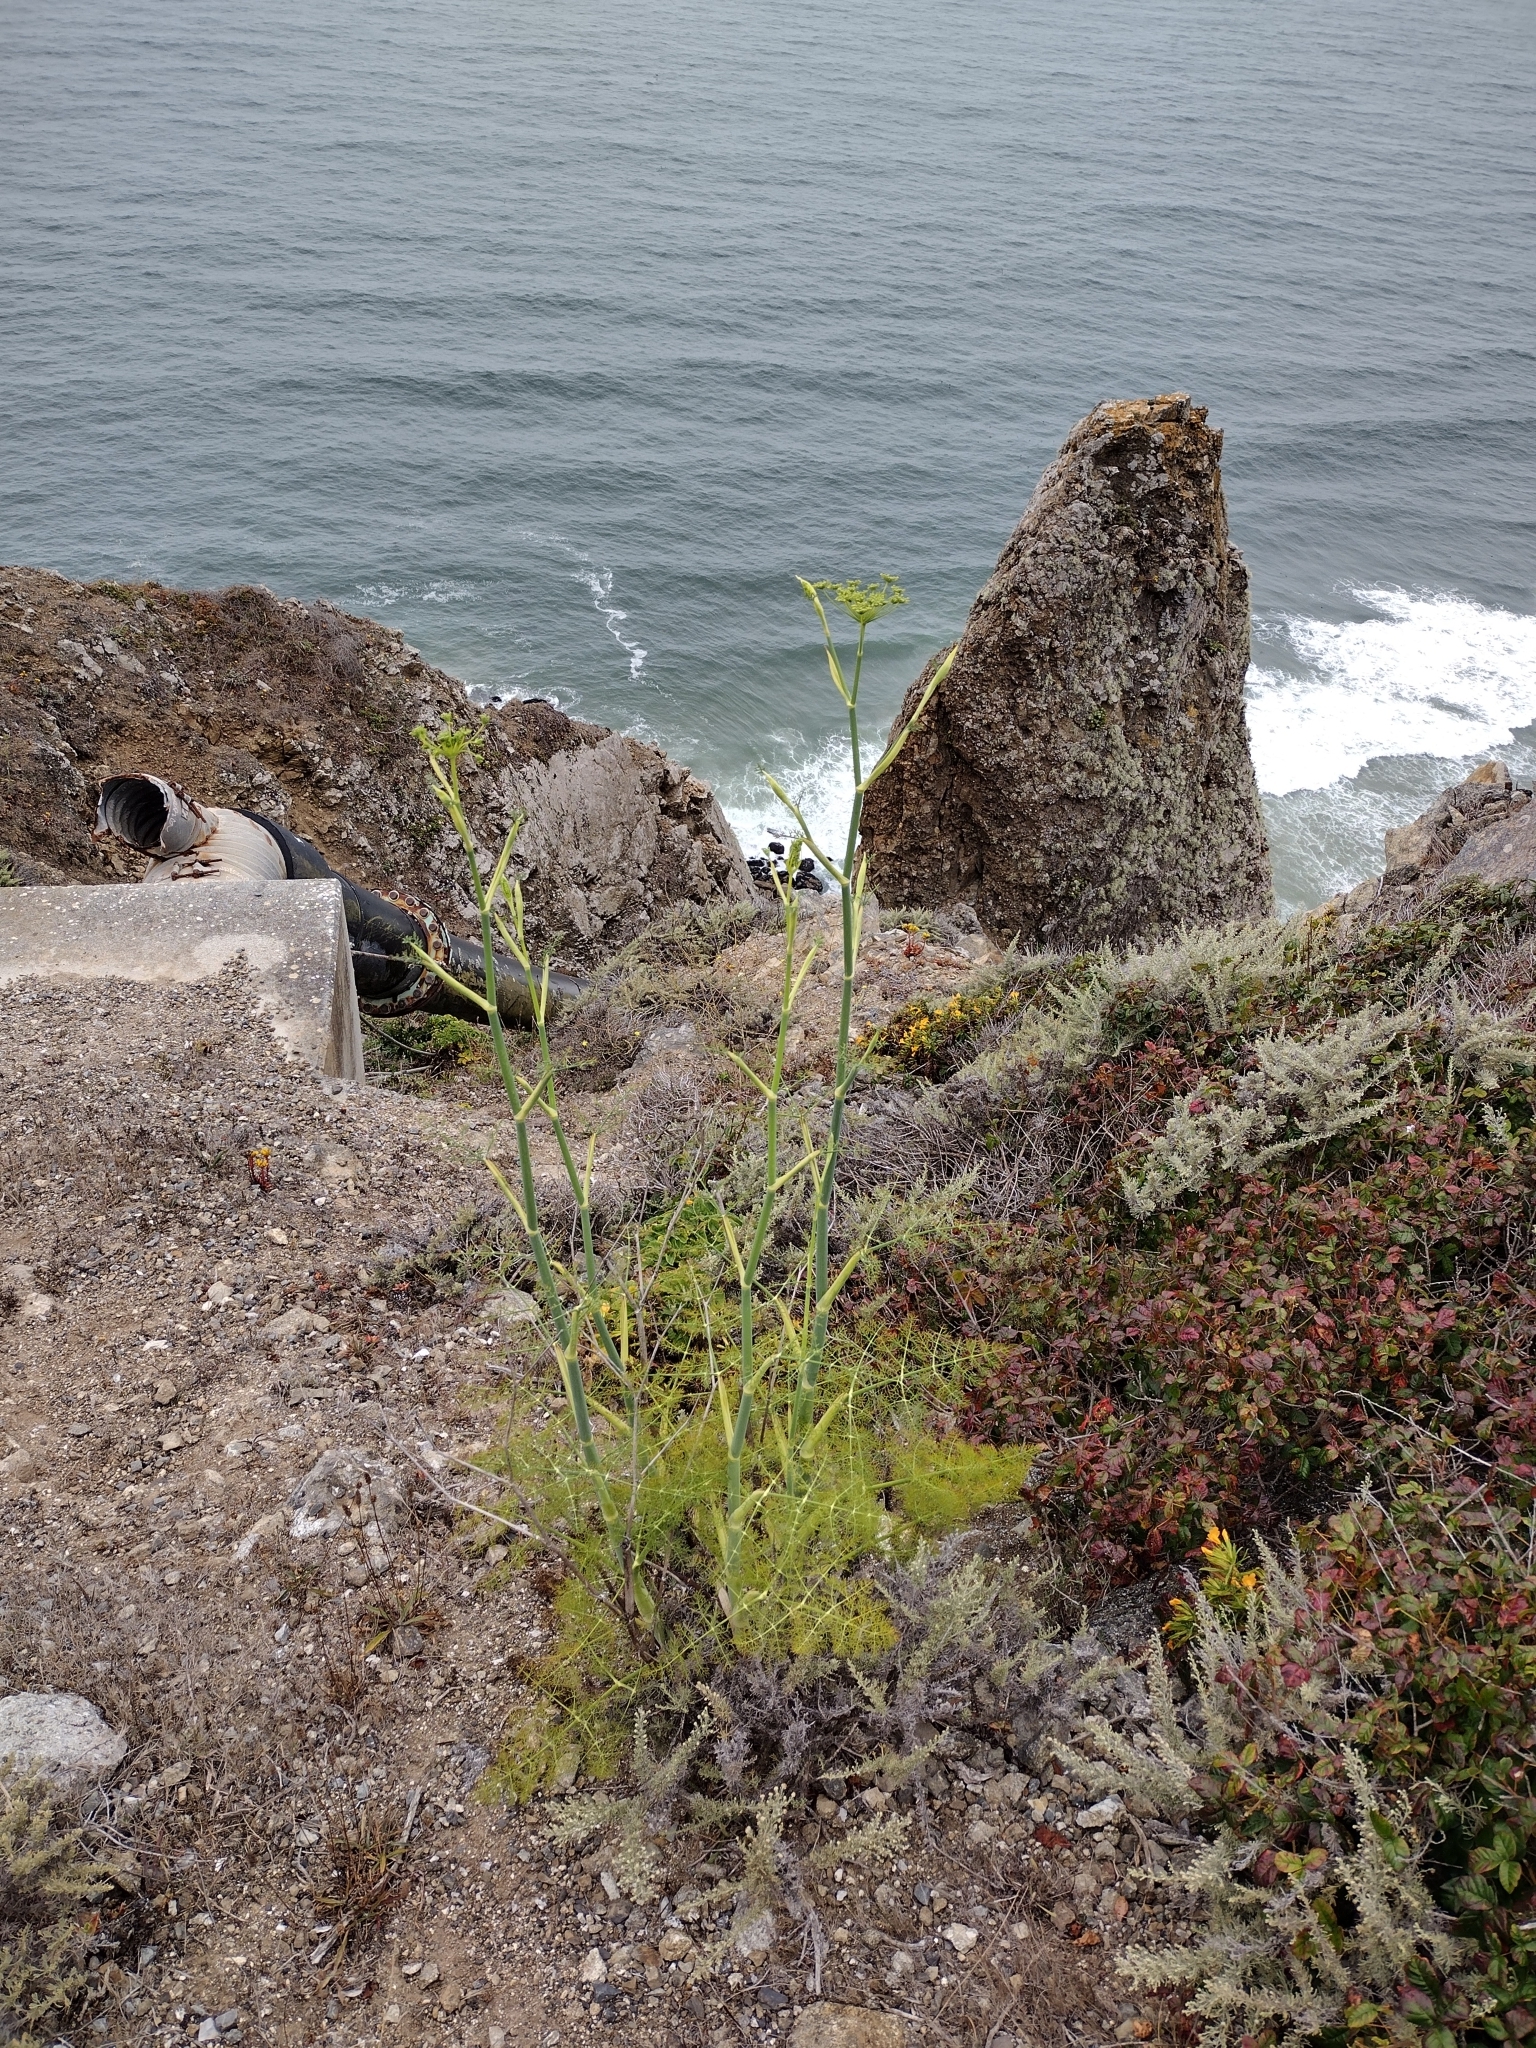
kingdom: Plantae
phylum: Tracheophyta
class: Magnoliopsida
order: Apiales
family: Apiaceae
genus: Foeniculum
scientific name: Foeniculum vulgare
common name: Fennel
